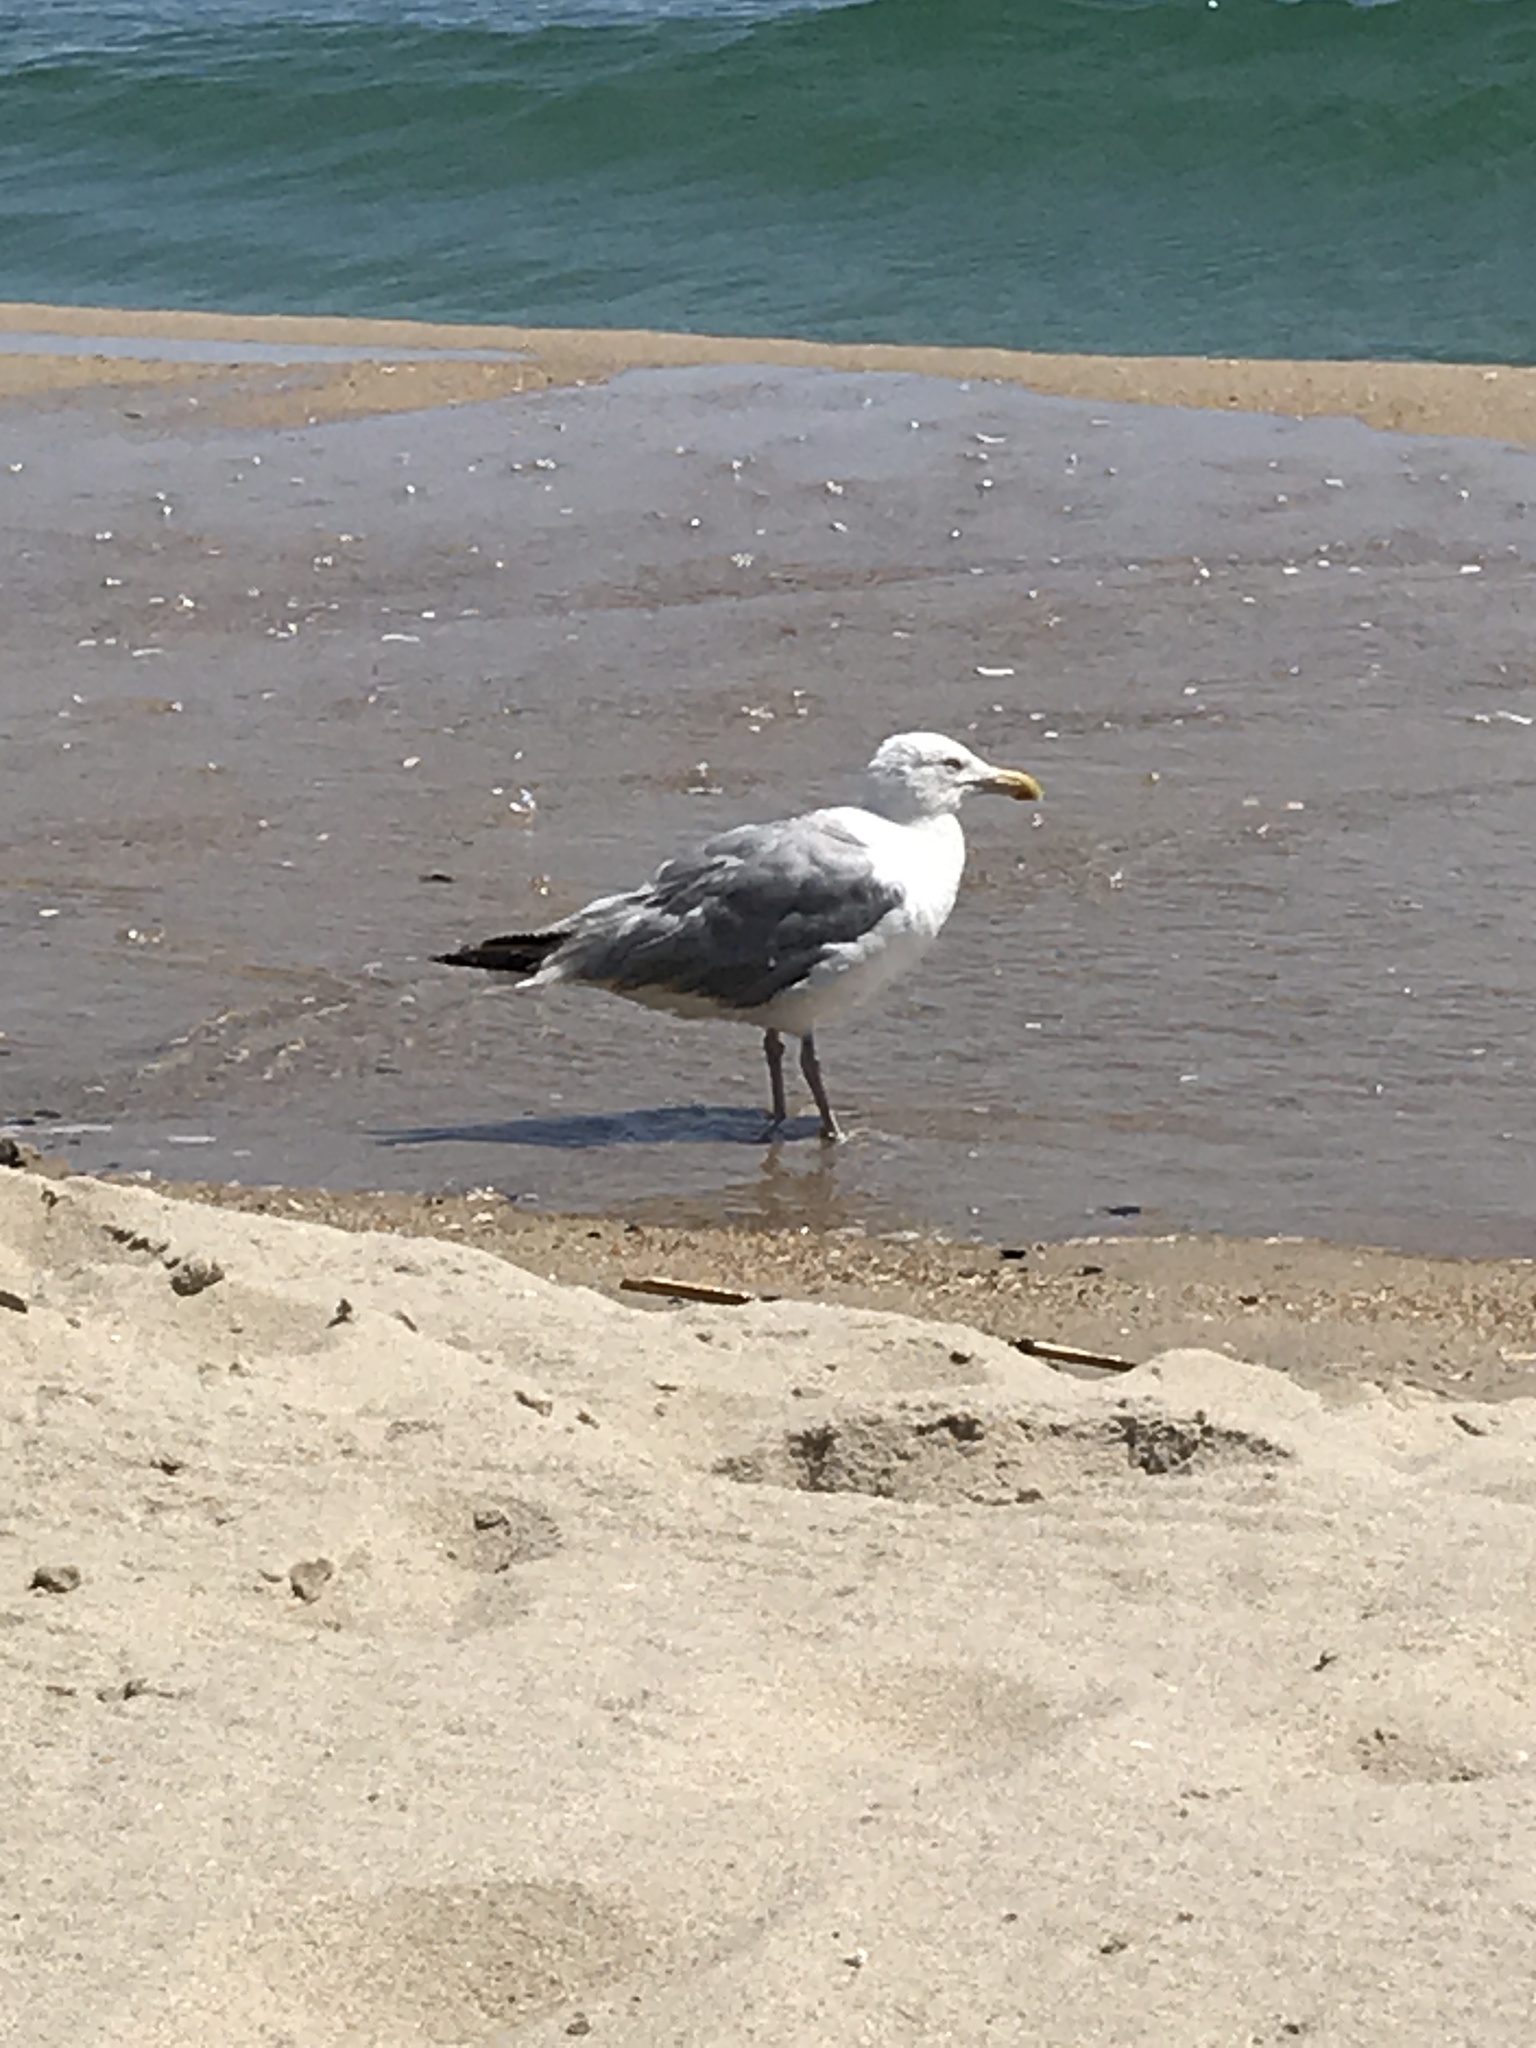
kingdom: Animalia
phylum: Chordata
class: Aves
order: Charadriiformes
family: Laridae
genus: Larus
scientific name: Larus argentatus
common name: Herring gull
